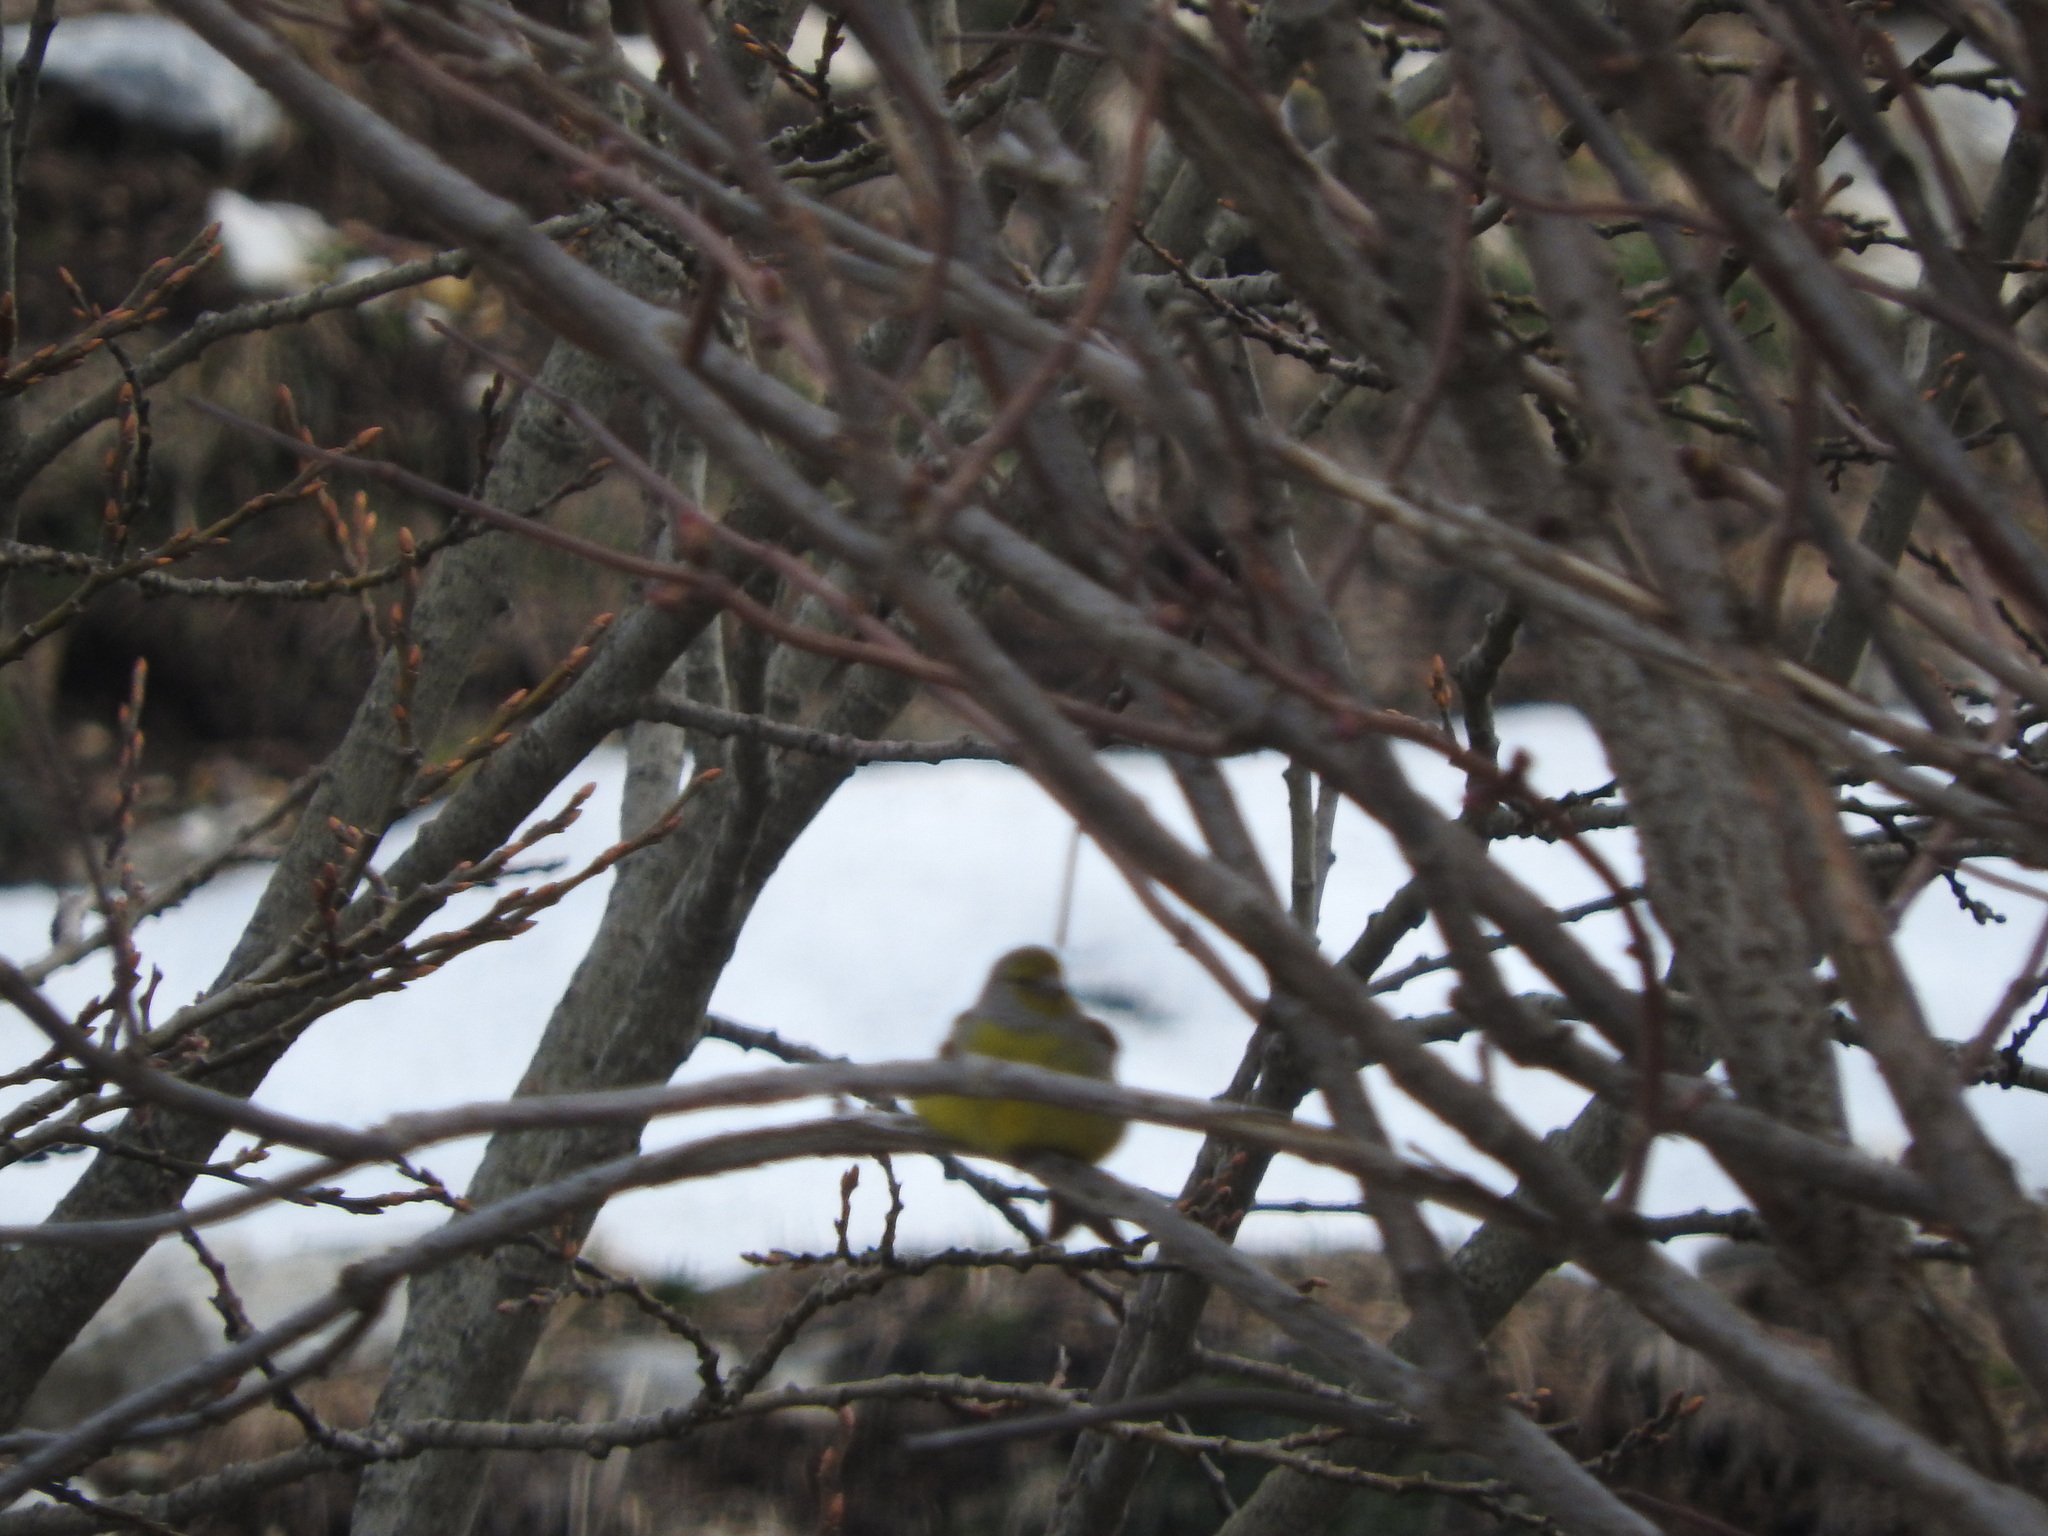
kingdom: Animalia
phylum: Chordata
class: Aves
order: Passeriformes
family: Fringillidae
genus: Carduelis
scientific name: Carduelis citrinella
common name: Citril finch
